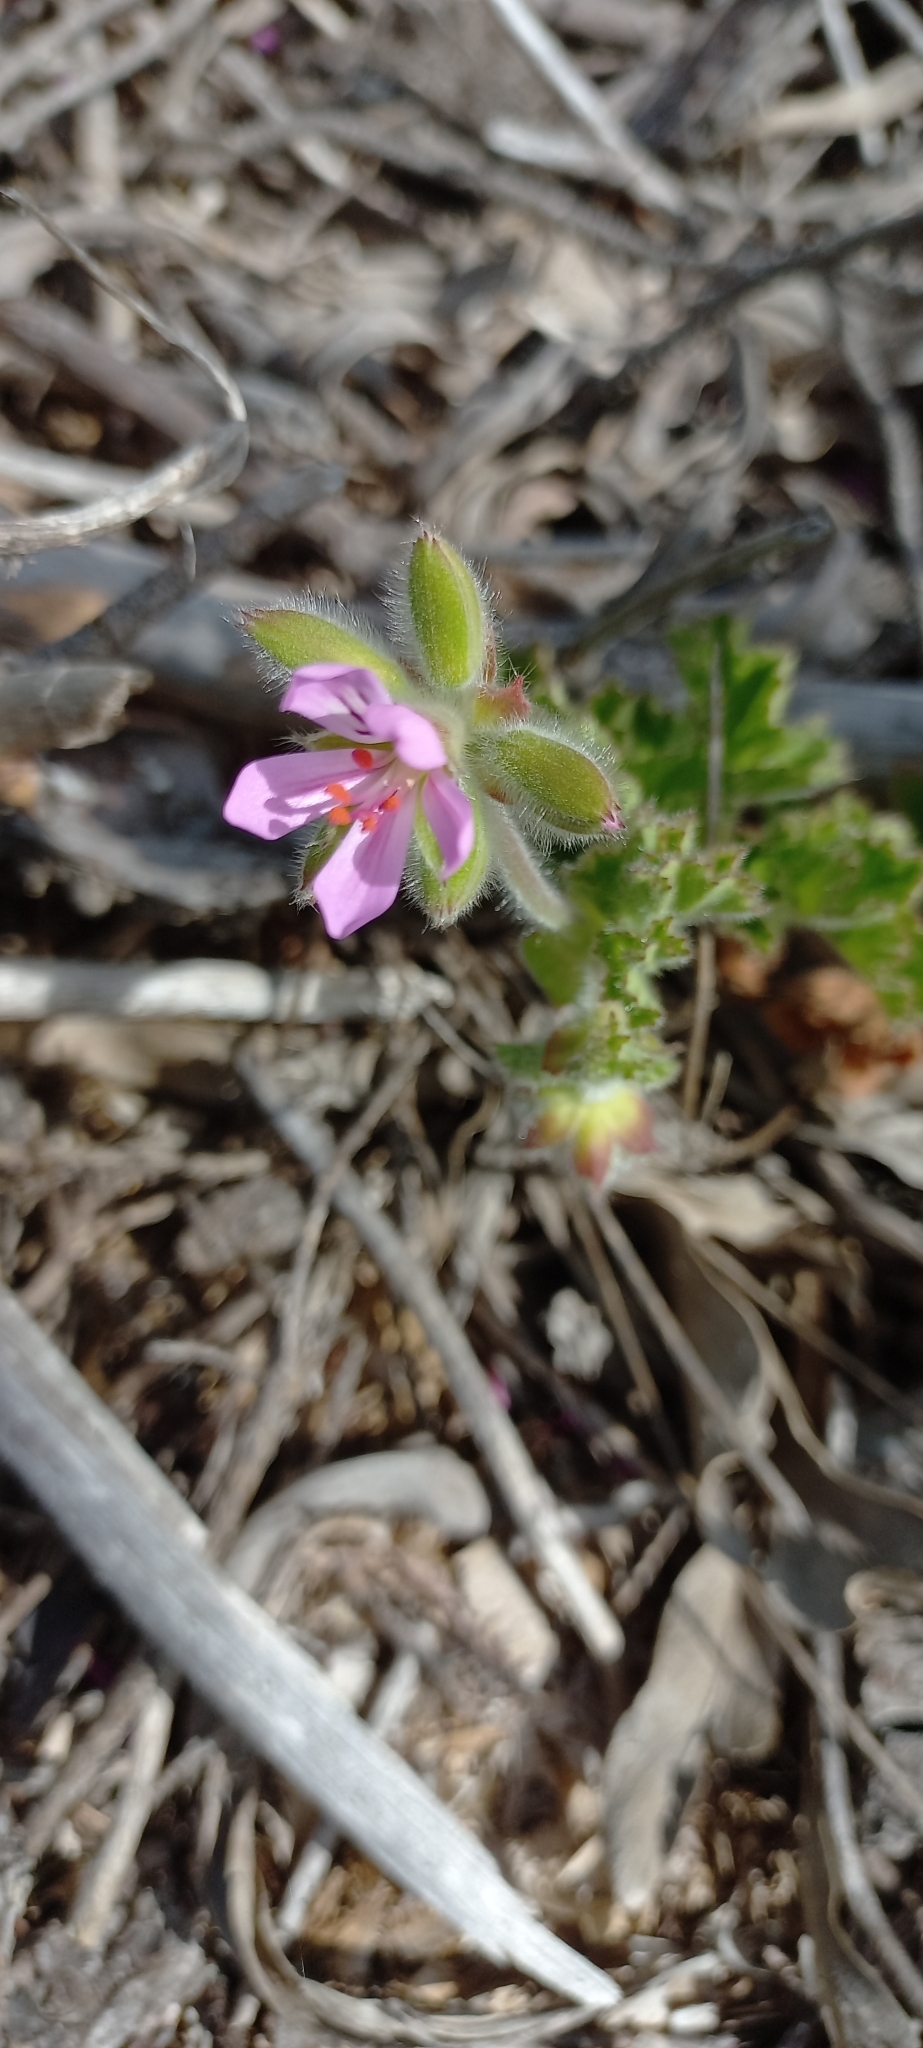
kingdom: Plantae
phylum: Tracheophyta
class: Magnoliopsida
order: Geraniales
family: Geraniaceae
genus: Pelargonium
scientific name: Pelargonium capitatum
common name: Rose scented geranium
